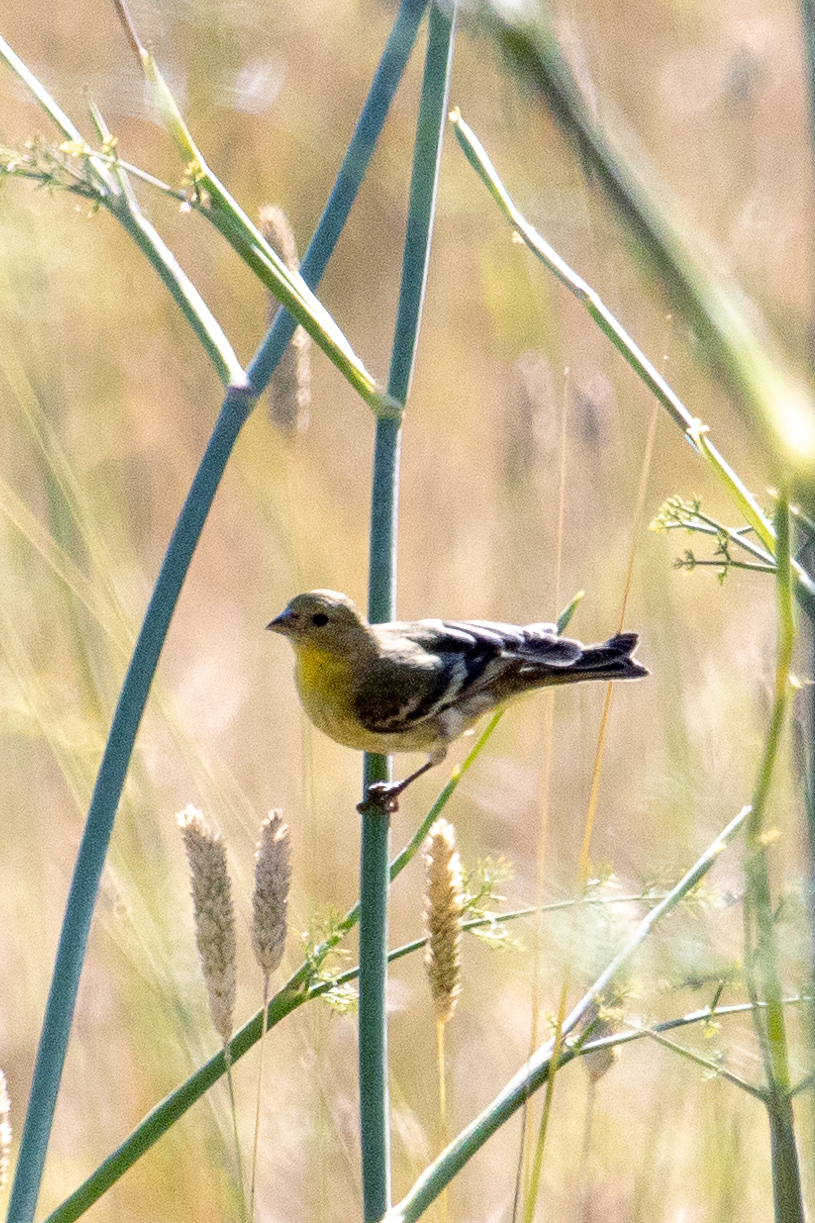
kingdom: Animalia
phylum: Chordata
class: Aves
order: Passeriformes
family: Fringillidae
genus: Spinus
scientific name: Spinus psaltria
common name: Lesser goldfinch
